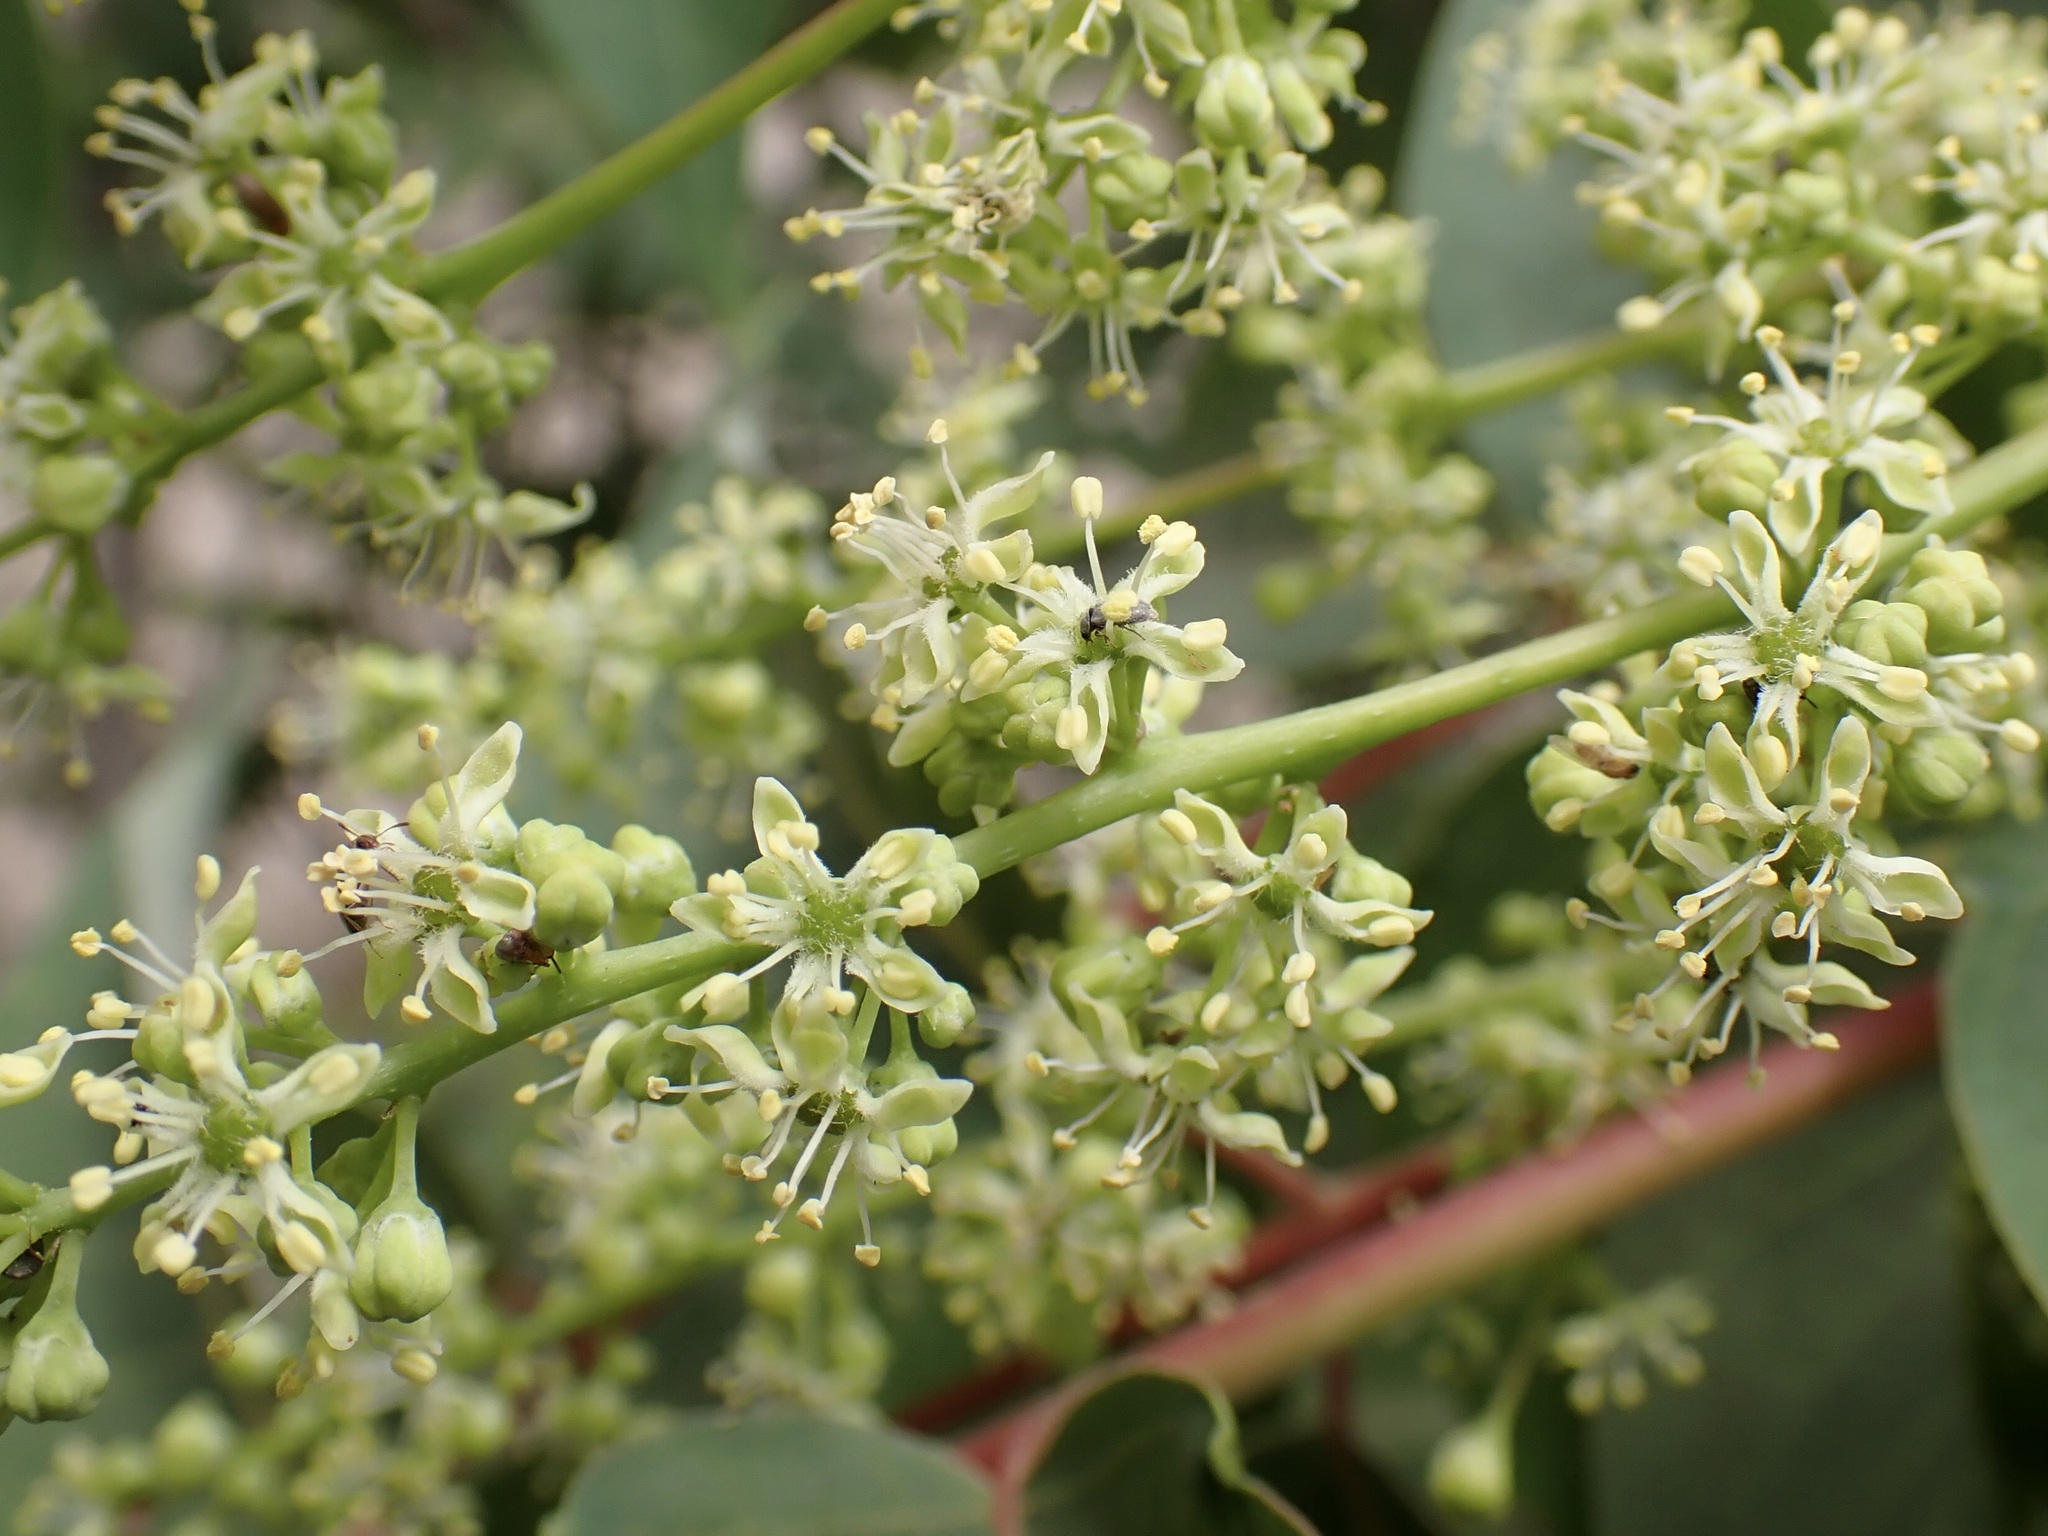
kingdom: Plantae
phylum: Tracheophyta
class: Magnoliopsida
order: Sapindales
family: Simaroubaceae
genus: Ailanthus
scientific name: Ailanthus altissima
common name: Tree-of-heaven
